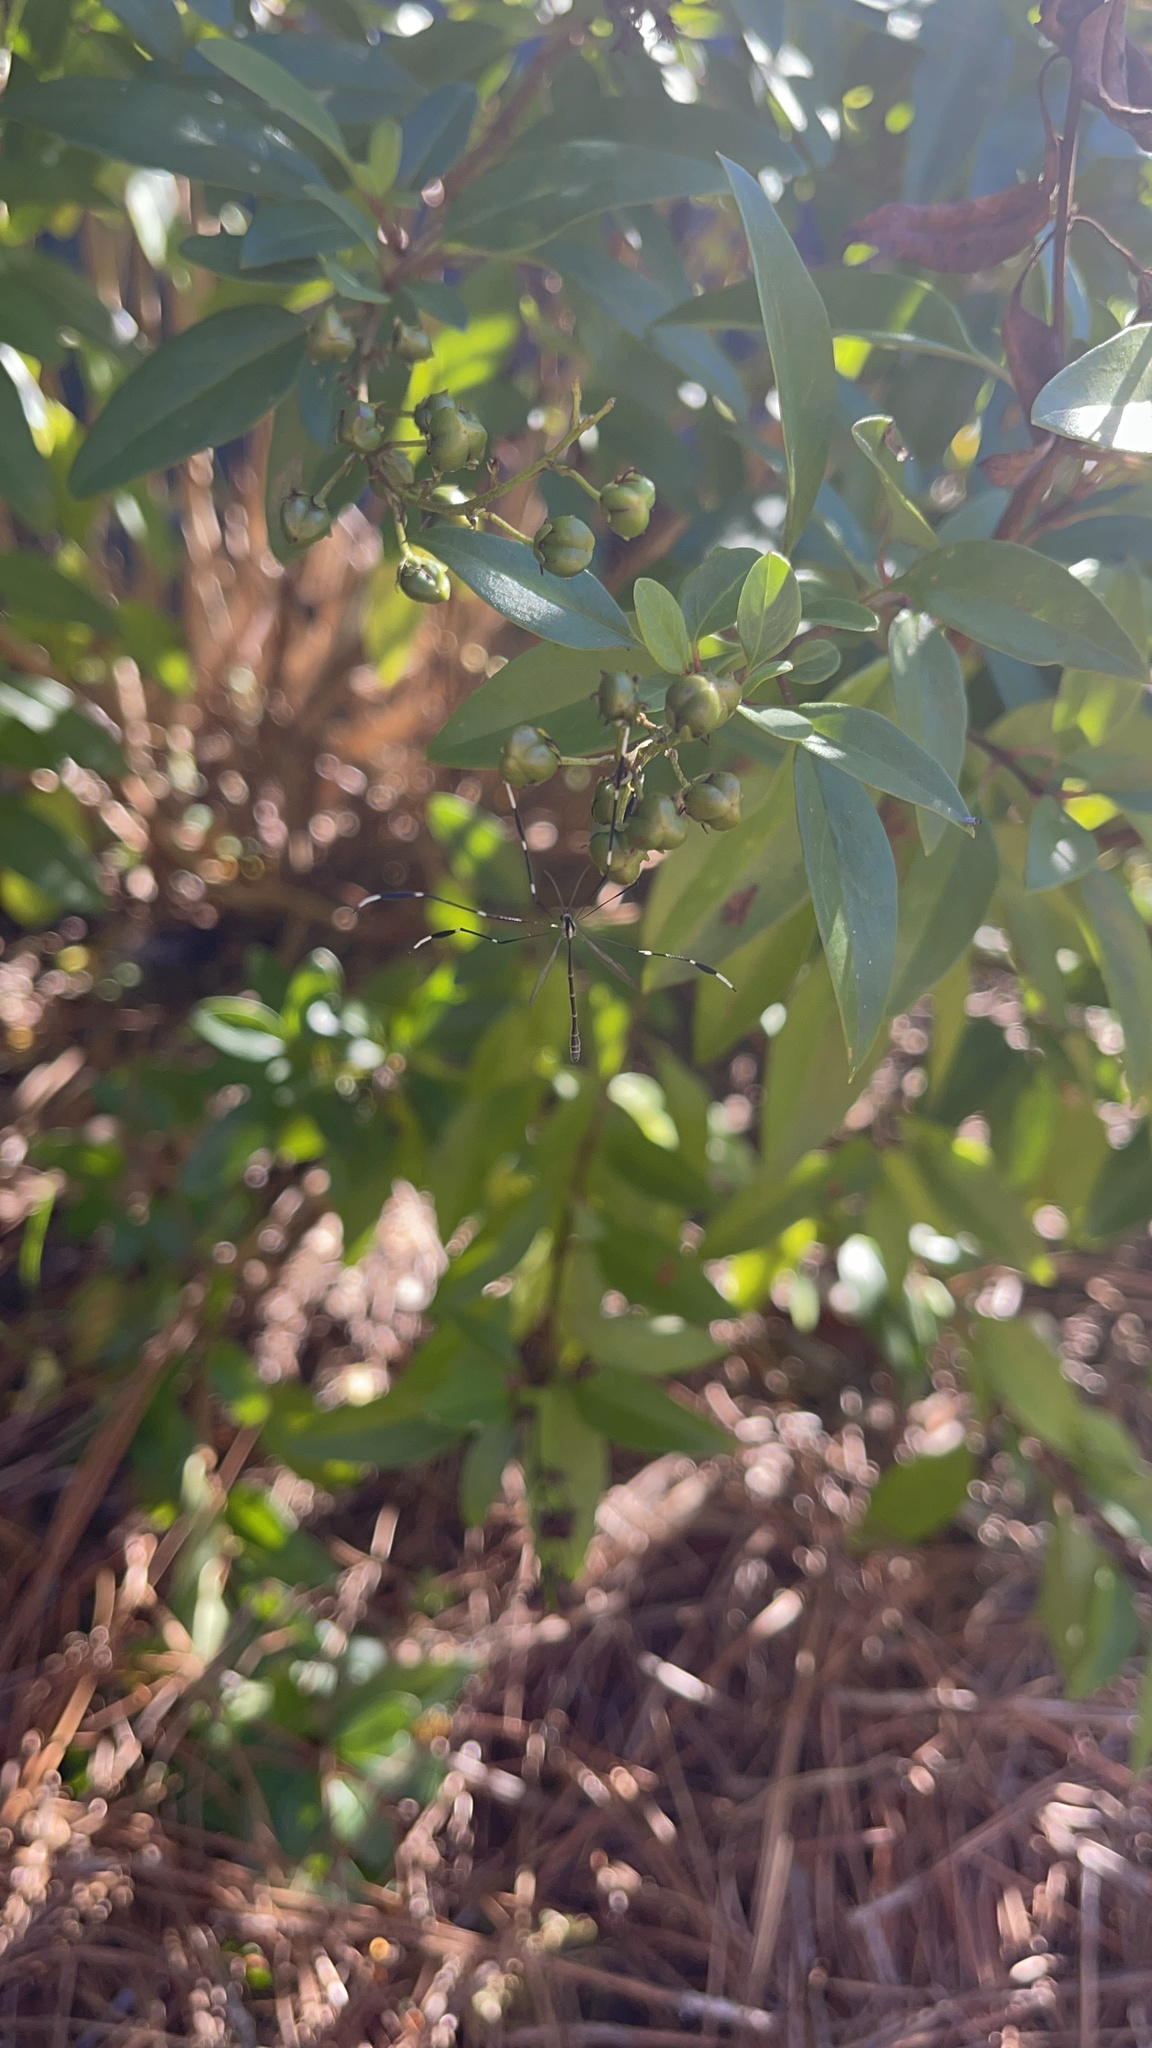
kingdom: Animalia
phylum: Arthropoda
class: Insecta
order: Diptera
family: Ptychopteridae
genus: Bittacomorpha
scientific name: Bittacomorpha clavipes
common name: Eastern phantom crane fly
